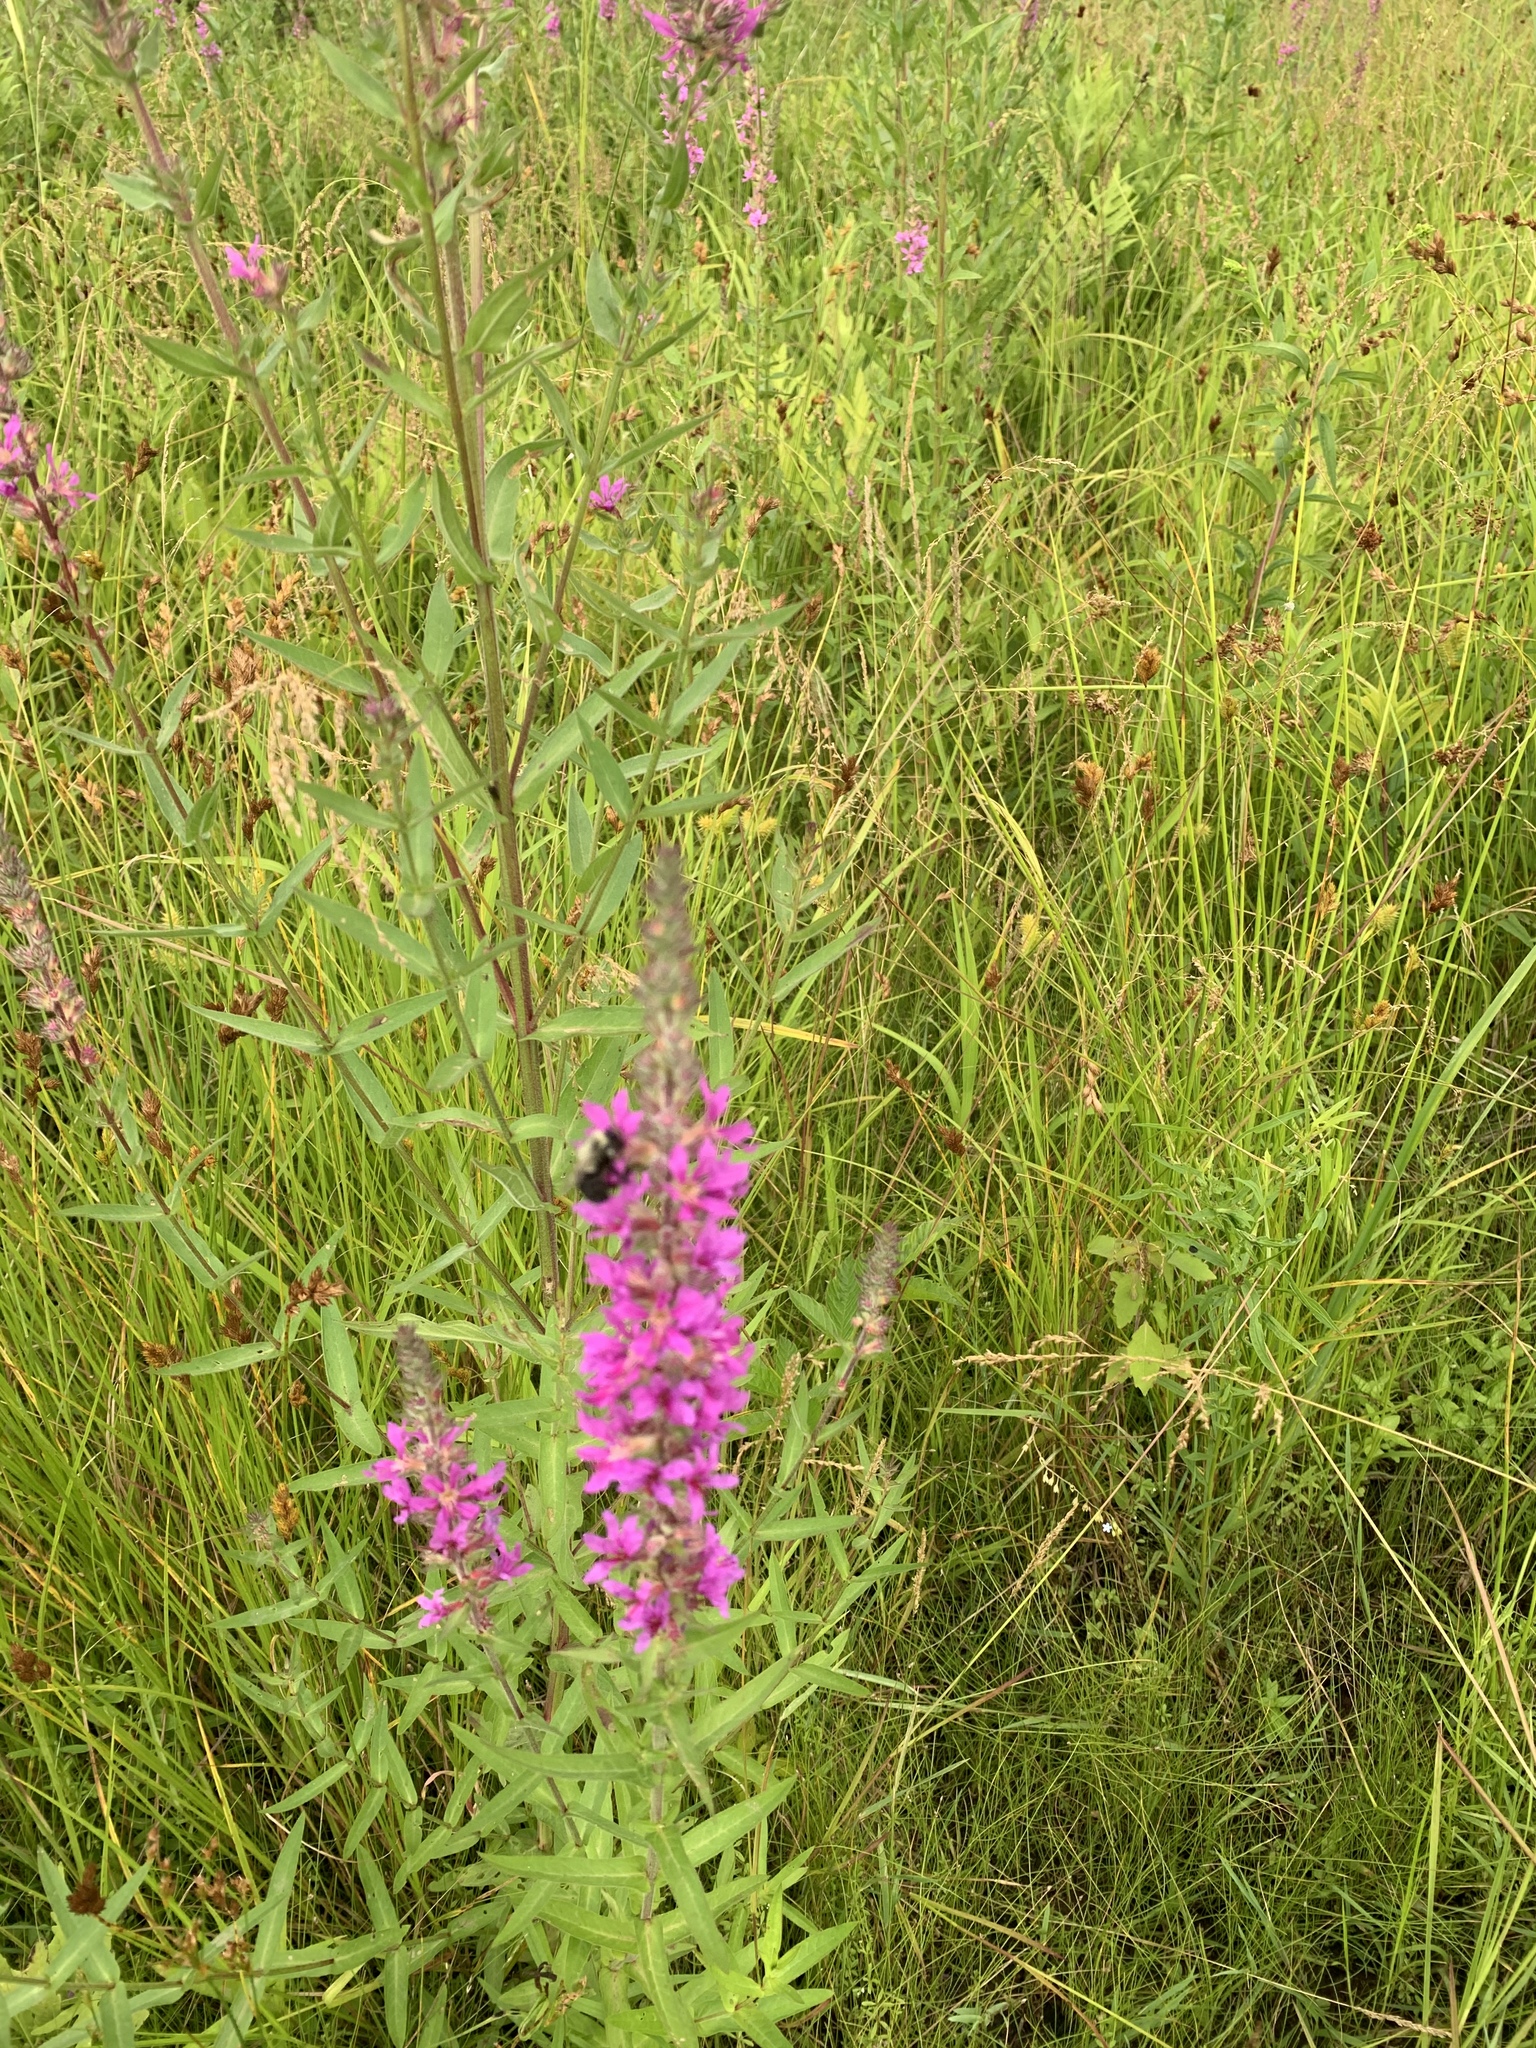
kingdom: Plantae
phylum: Tracheophyta
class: Magnoliopsida
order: Myrtales
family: Lythraceae
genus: Lythrum
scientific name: Lythrum salicaria
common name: Purple loosestrife
